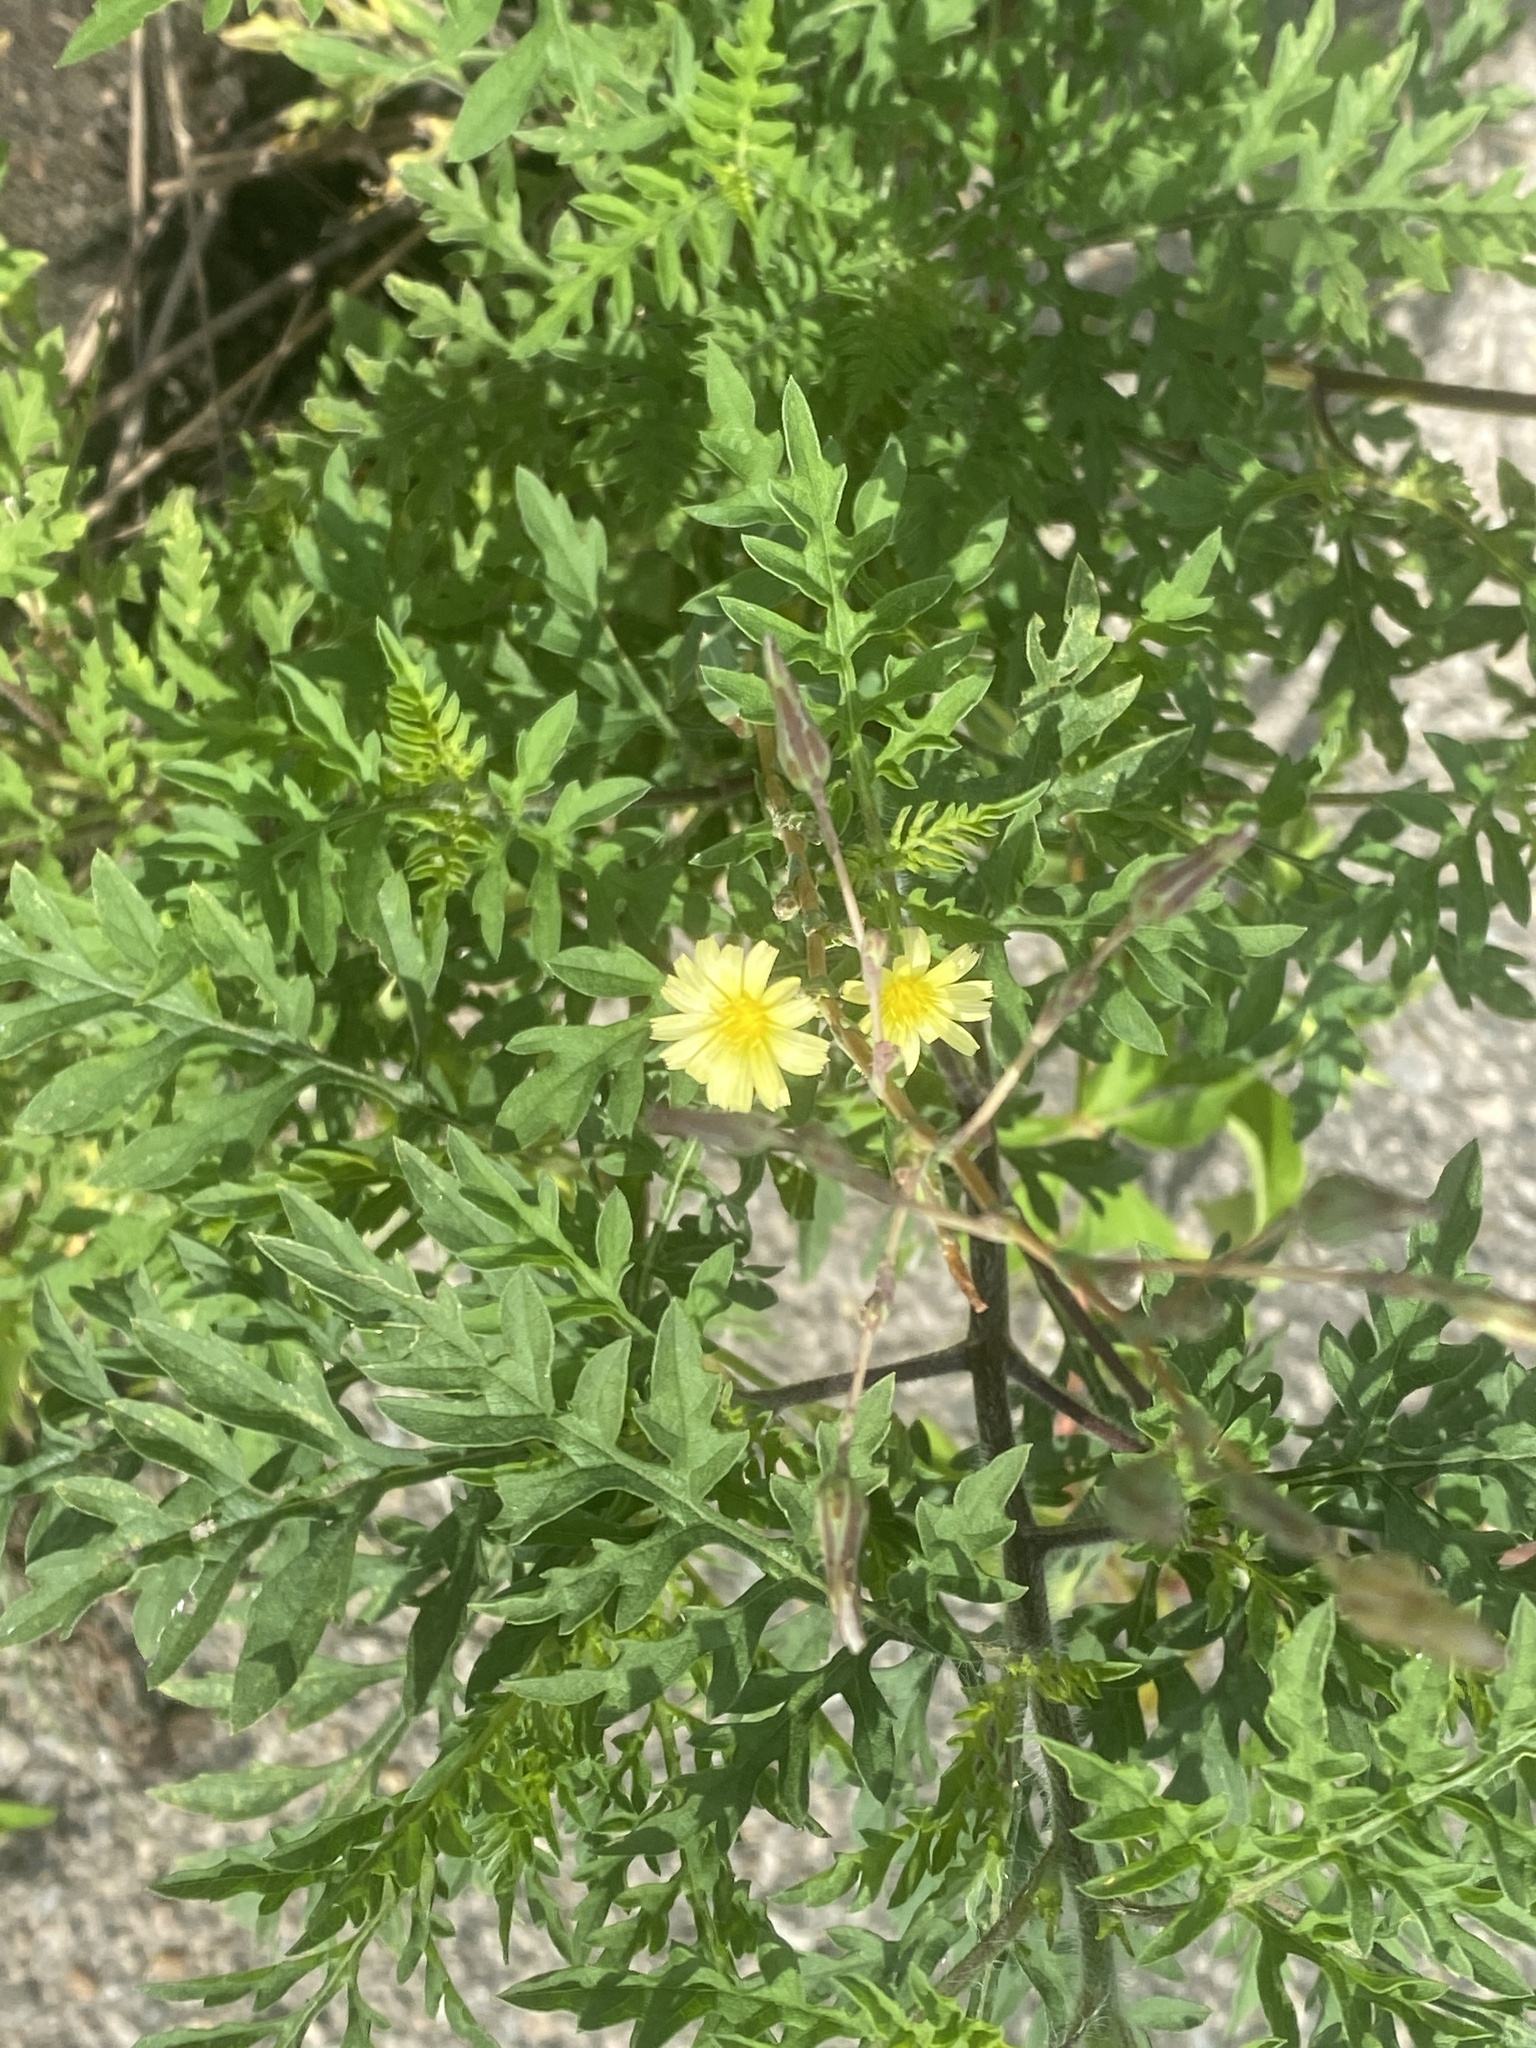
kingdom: Plantae
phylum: Tracheophyta
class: Magnoliopsida
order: Asterales
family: Asteraceae
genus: Lactuca
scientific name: Lactuca serriola
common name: Prickly lettuce
